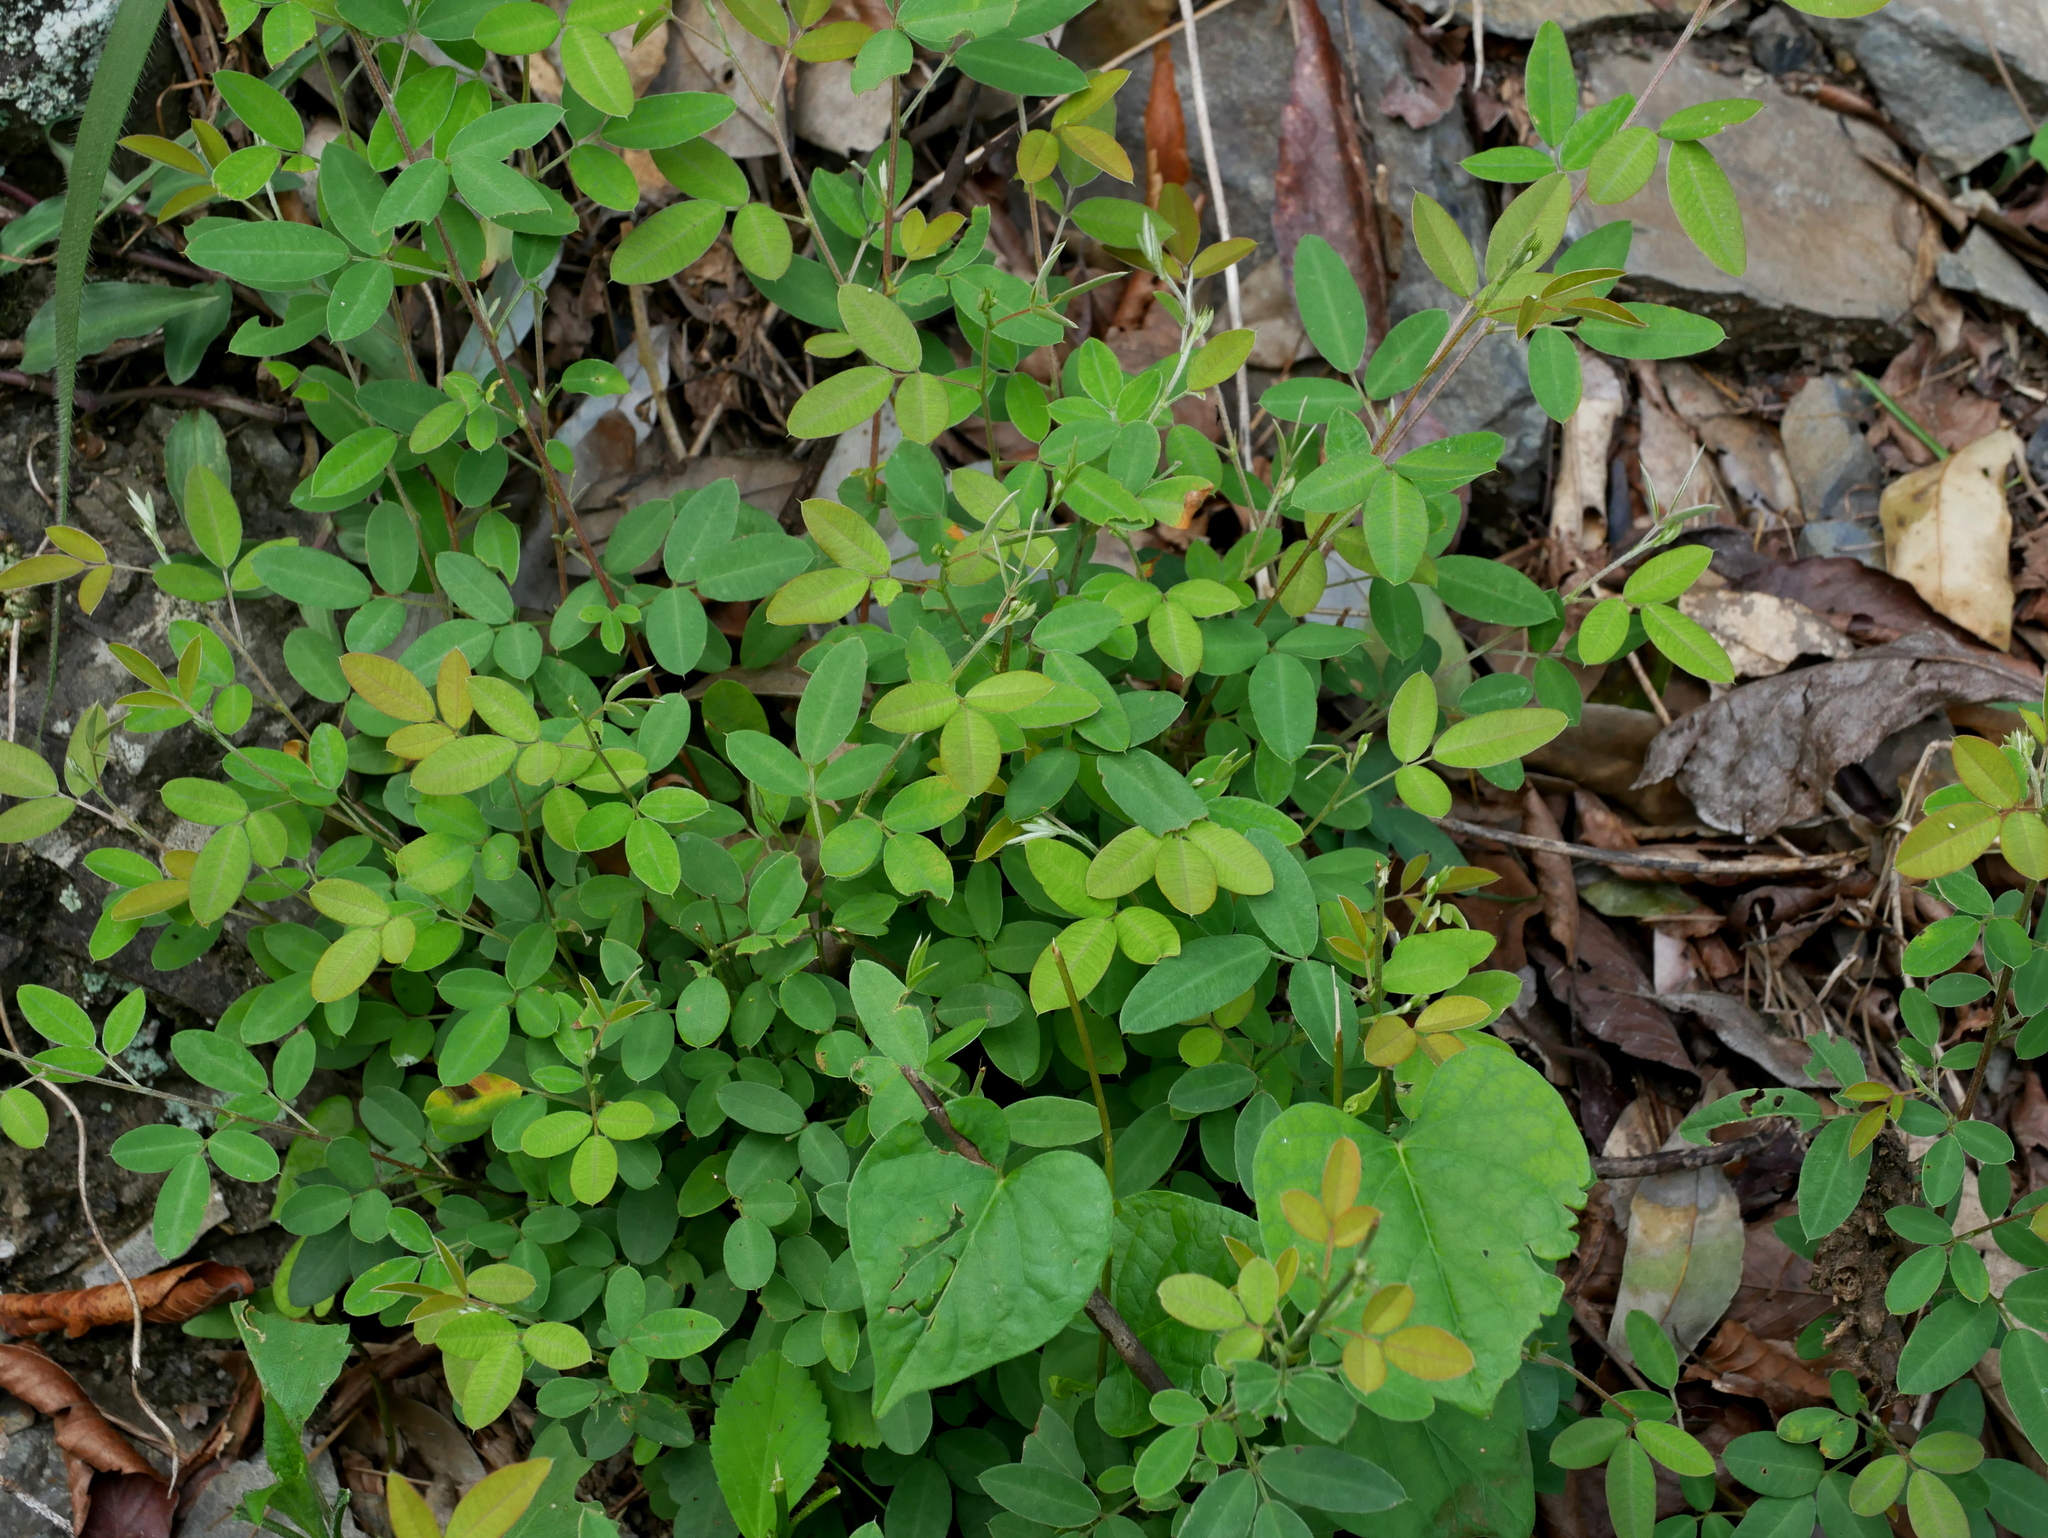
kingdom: Plantae
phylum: Tracheophyta
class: Magnoliopsida
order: Fabales
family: Fabaceae
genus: Campylotropis
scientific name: Campylotropis macrocarpa
